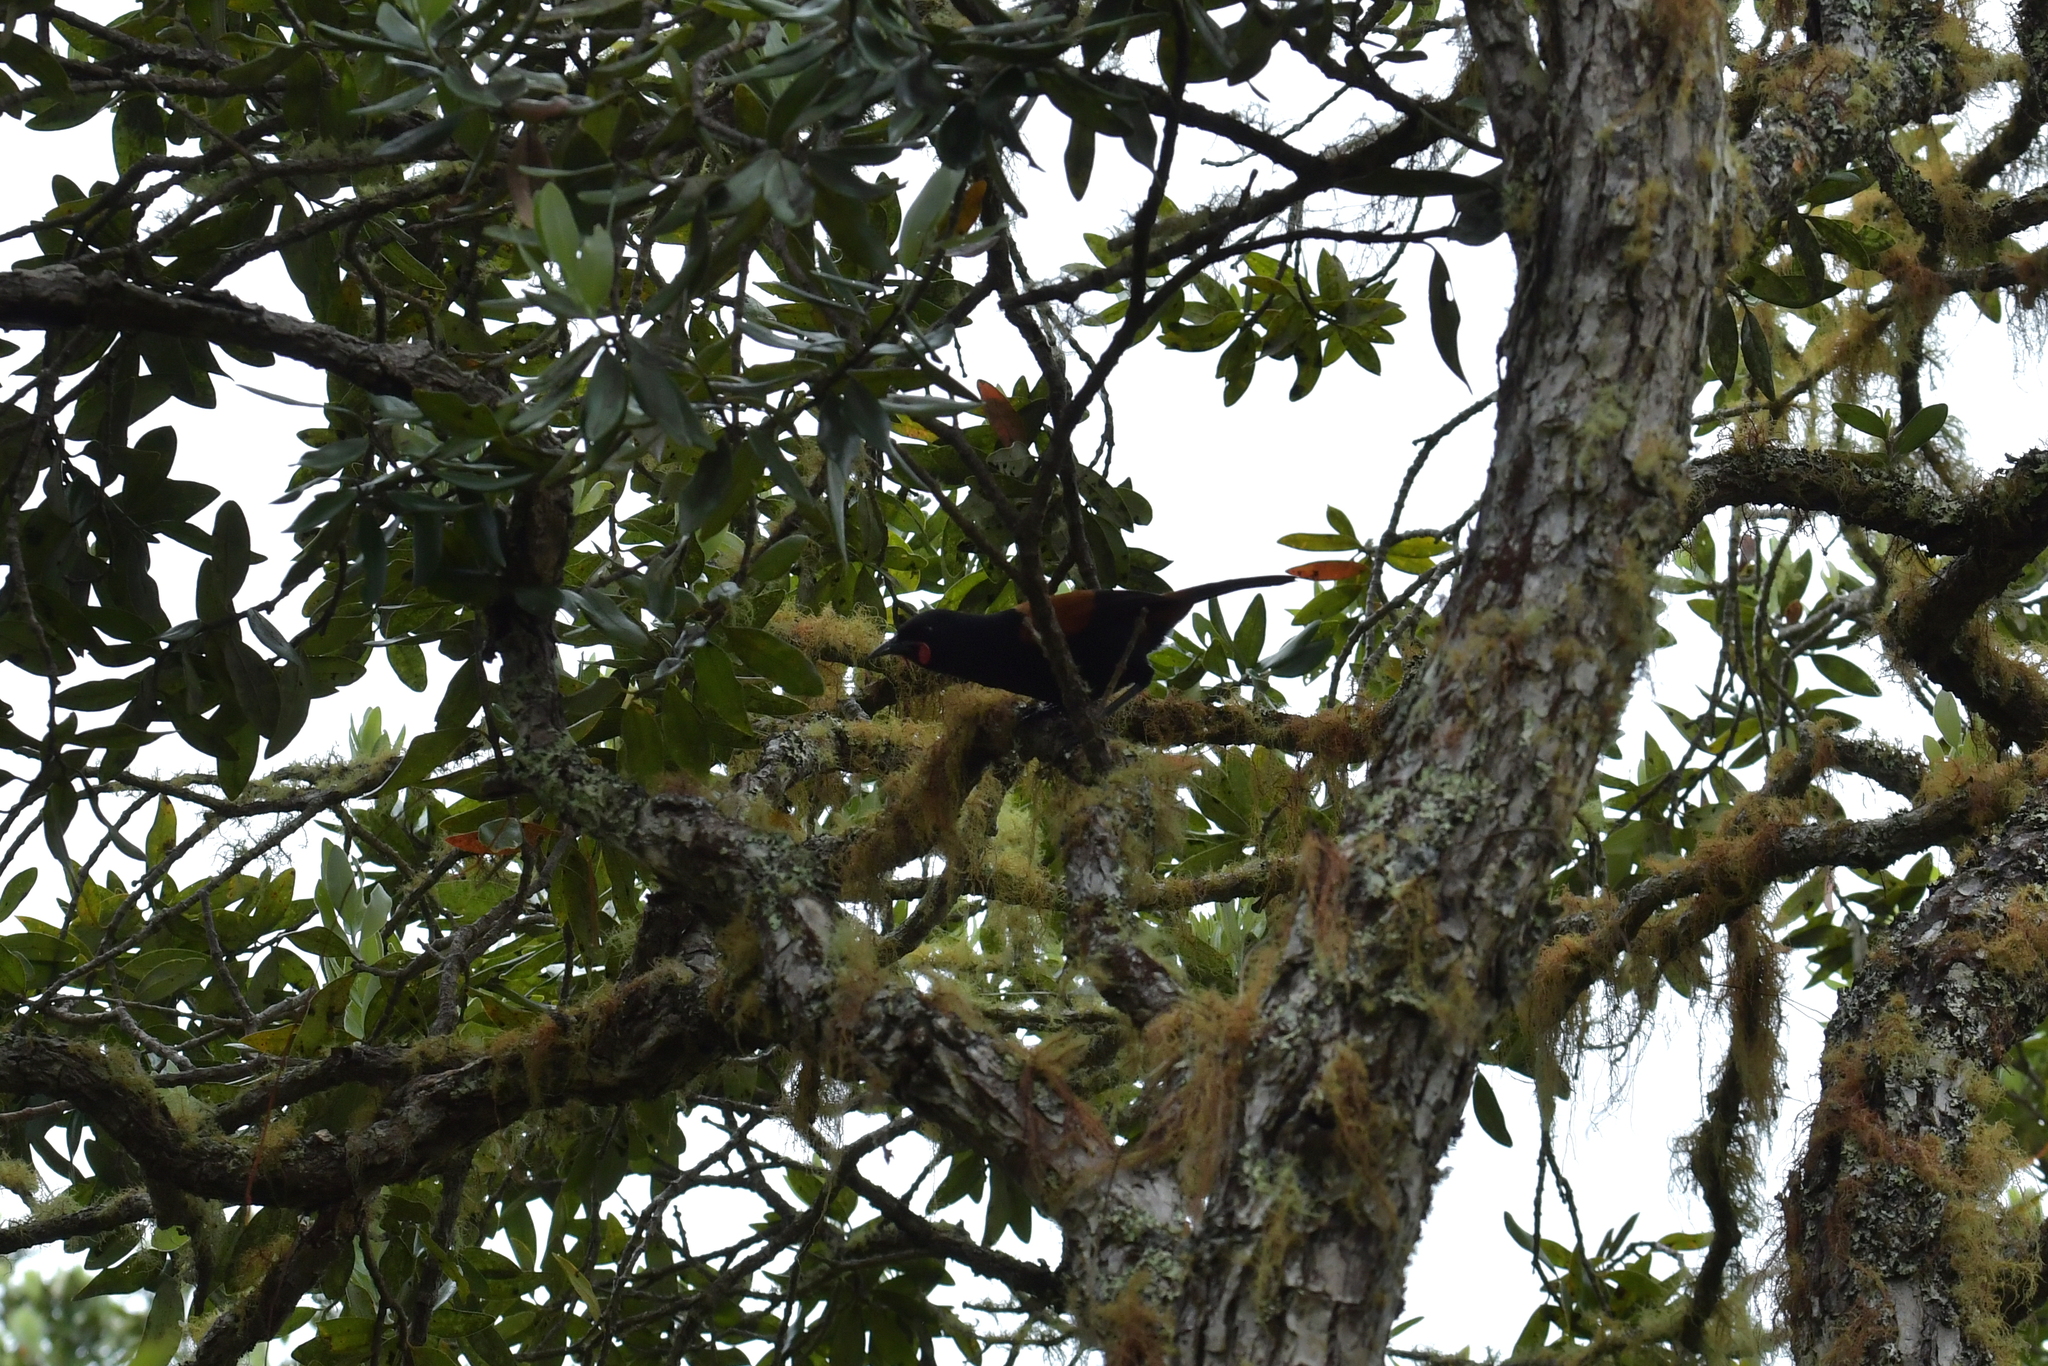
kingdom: Animalia
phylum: Chordata
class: Aves
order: Passeriformes
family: Callaeatidae
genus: Philesturnus
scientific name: Philesturnus carunculatus
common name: South island saddleback
